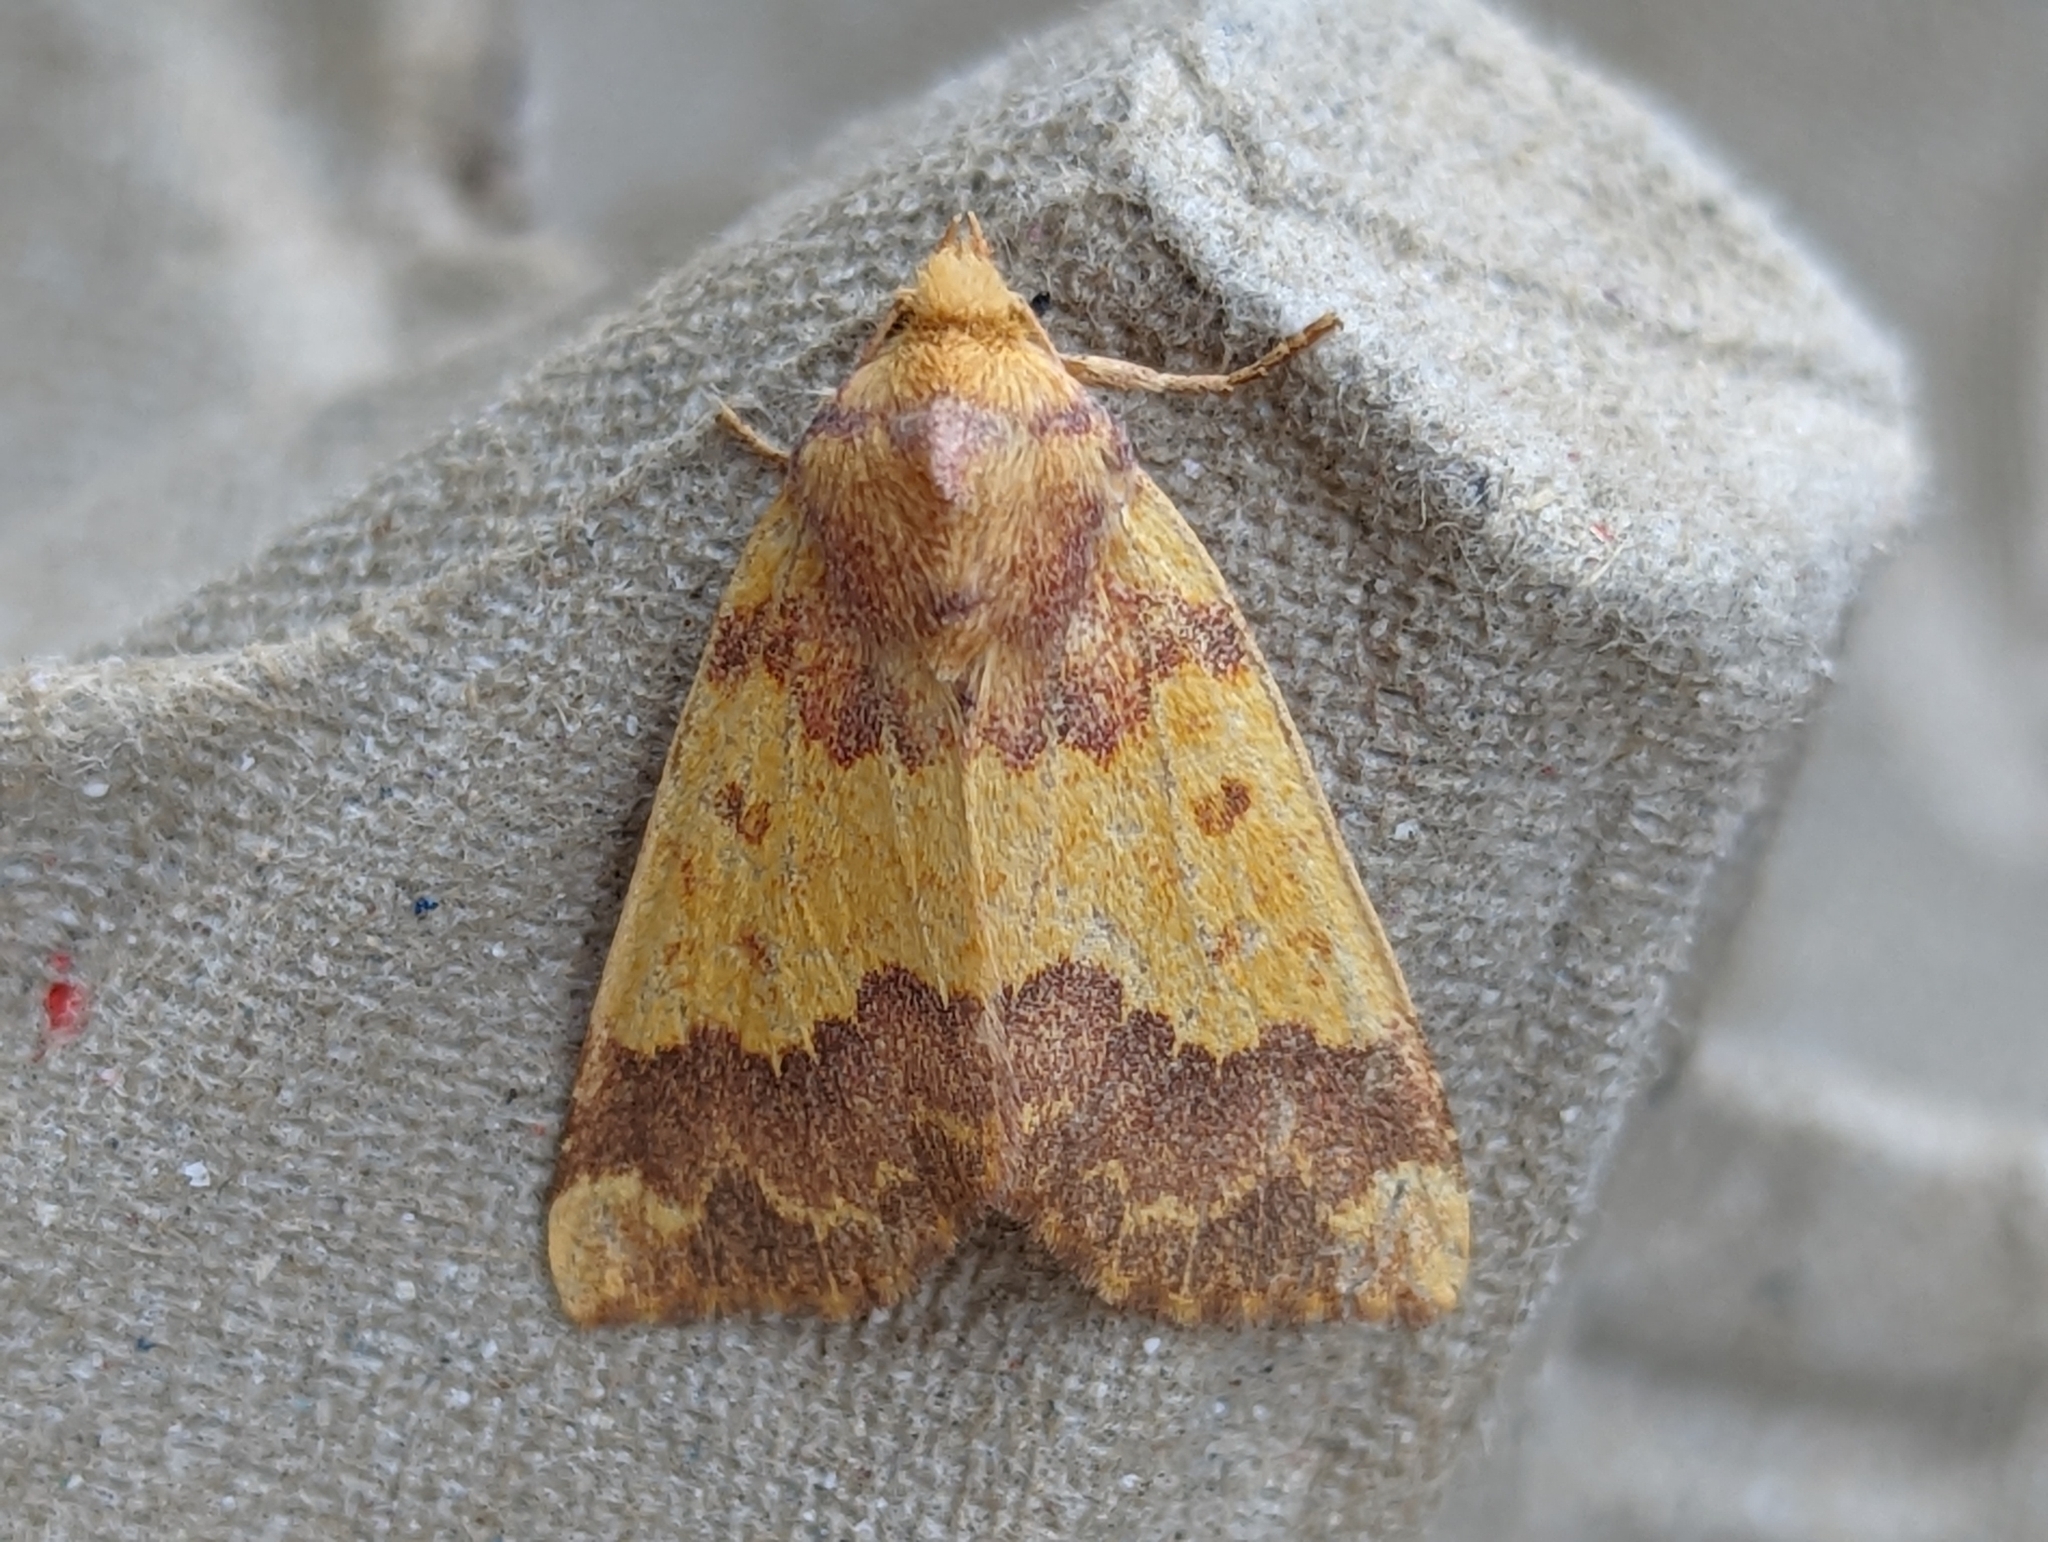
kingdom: Animalia
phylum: Arthropoda
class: Insecta
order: Lepidoptera
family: Noctuidae
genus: Tiliacea
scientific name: Tiliacea aurago
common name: Barred sallow
